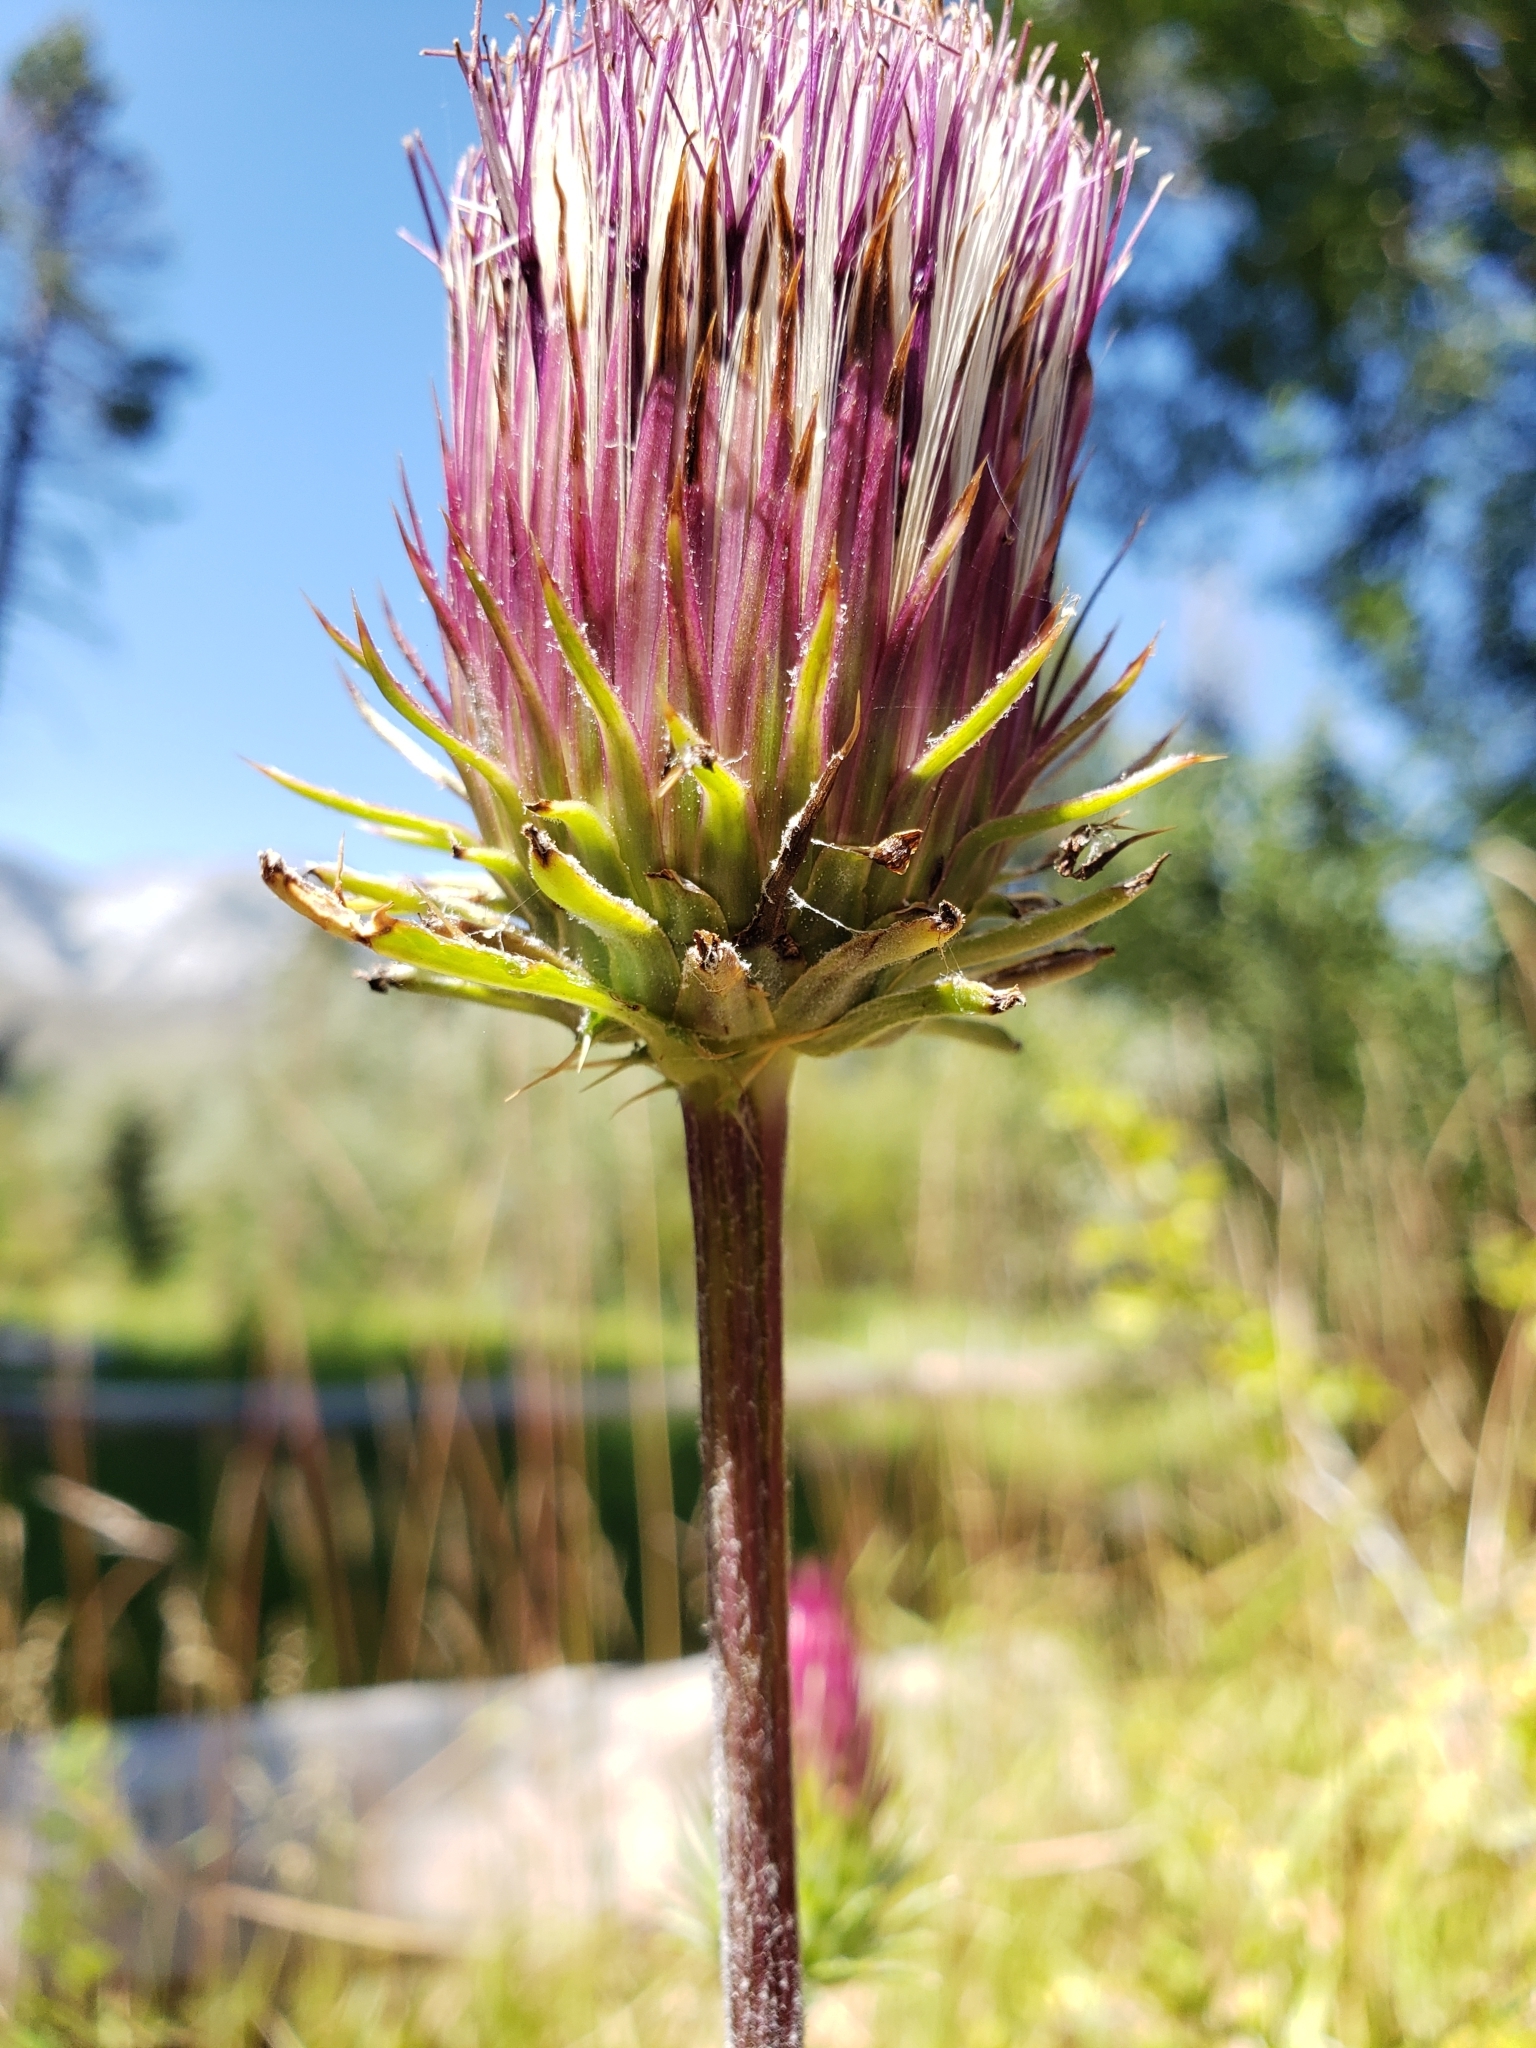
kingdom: Plantae
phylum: Tracheophyta
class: Magnoliopsida
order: Asterales
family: Asteraceae
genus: Cirsium
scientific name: Cirsium andersonii
